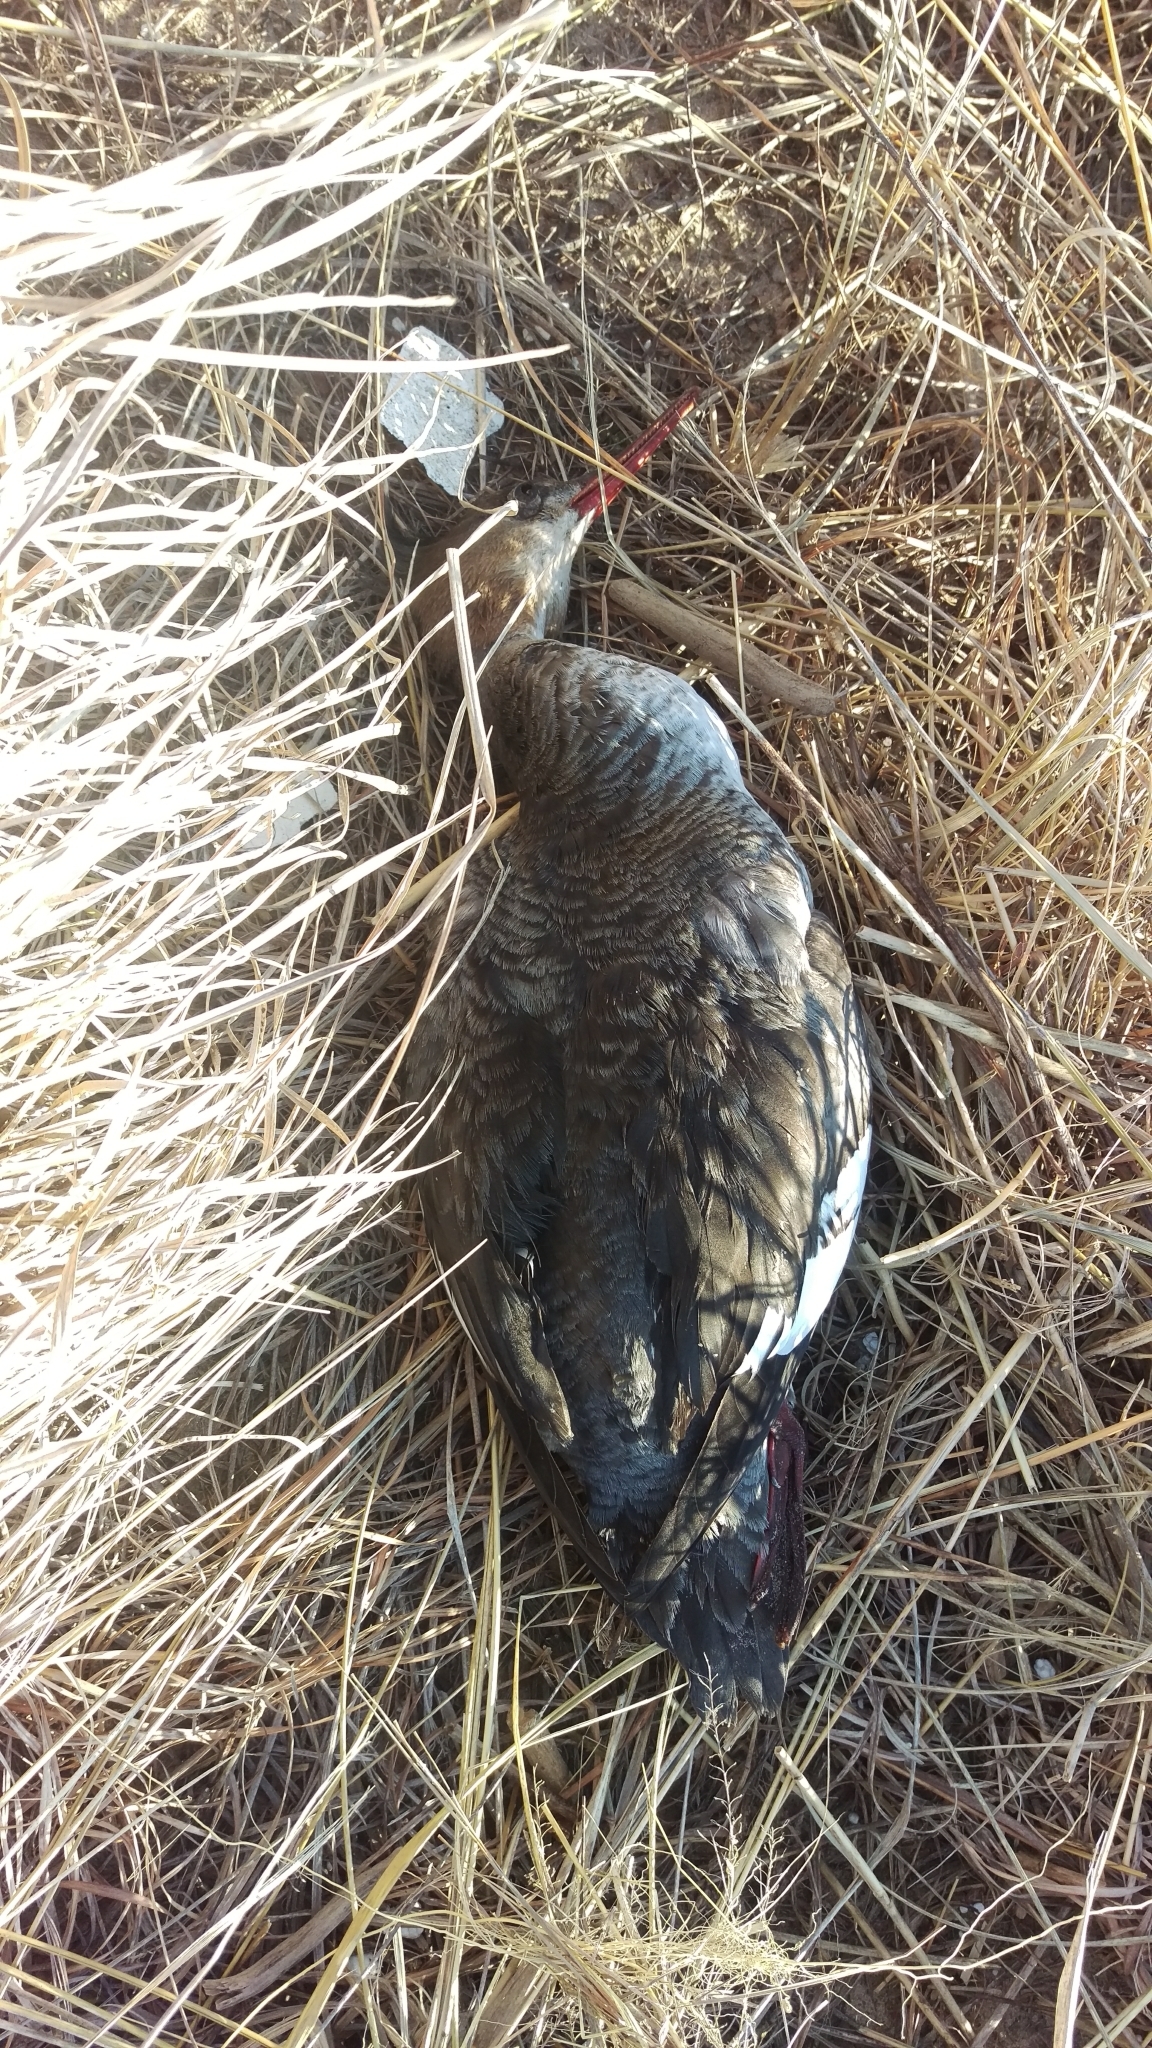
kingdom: Animalia
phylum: Chordata
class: Aves
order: Anseriformes
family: Anatidae
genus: Mergus
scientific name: Mergus serrator
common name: Red-breasted merganser
